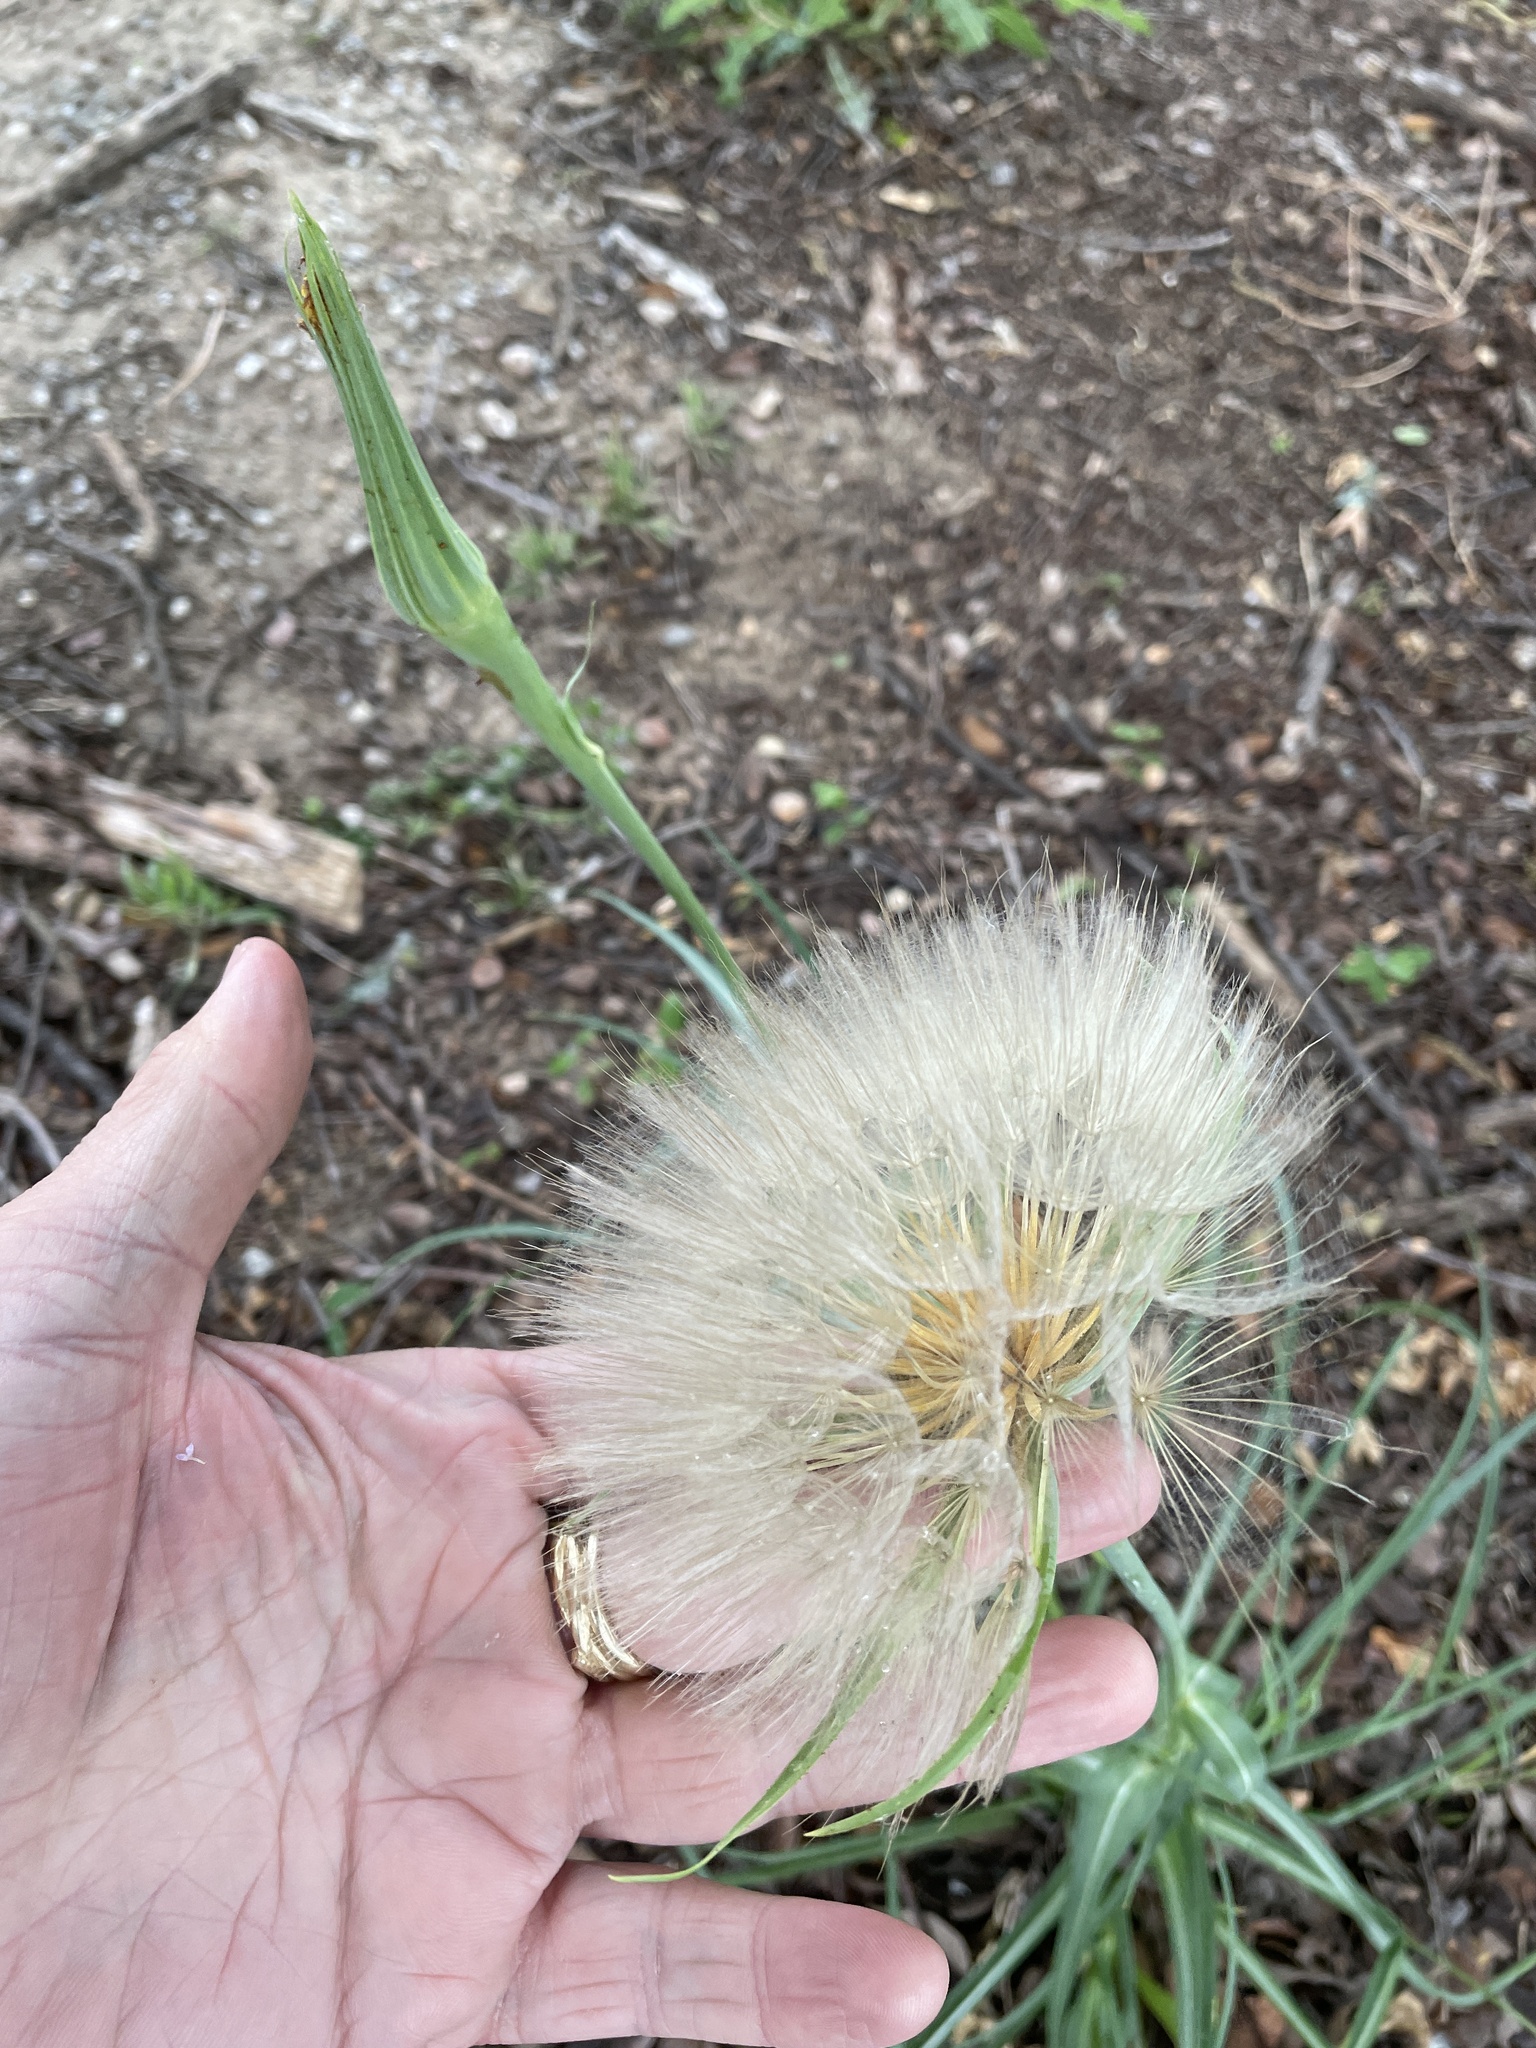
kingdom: Plantae
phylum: Tracheophyta
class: Magnoliopsida
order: Asterales
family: Asteraceae
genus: Tragopogon
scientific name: Tragopogon dubius
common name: Yellow salsify
